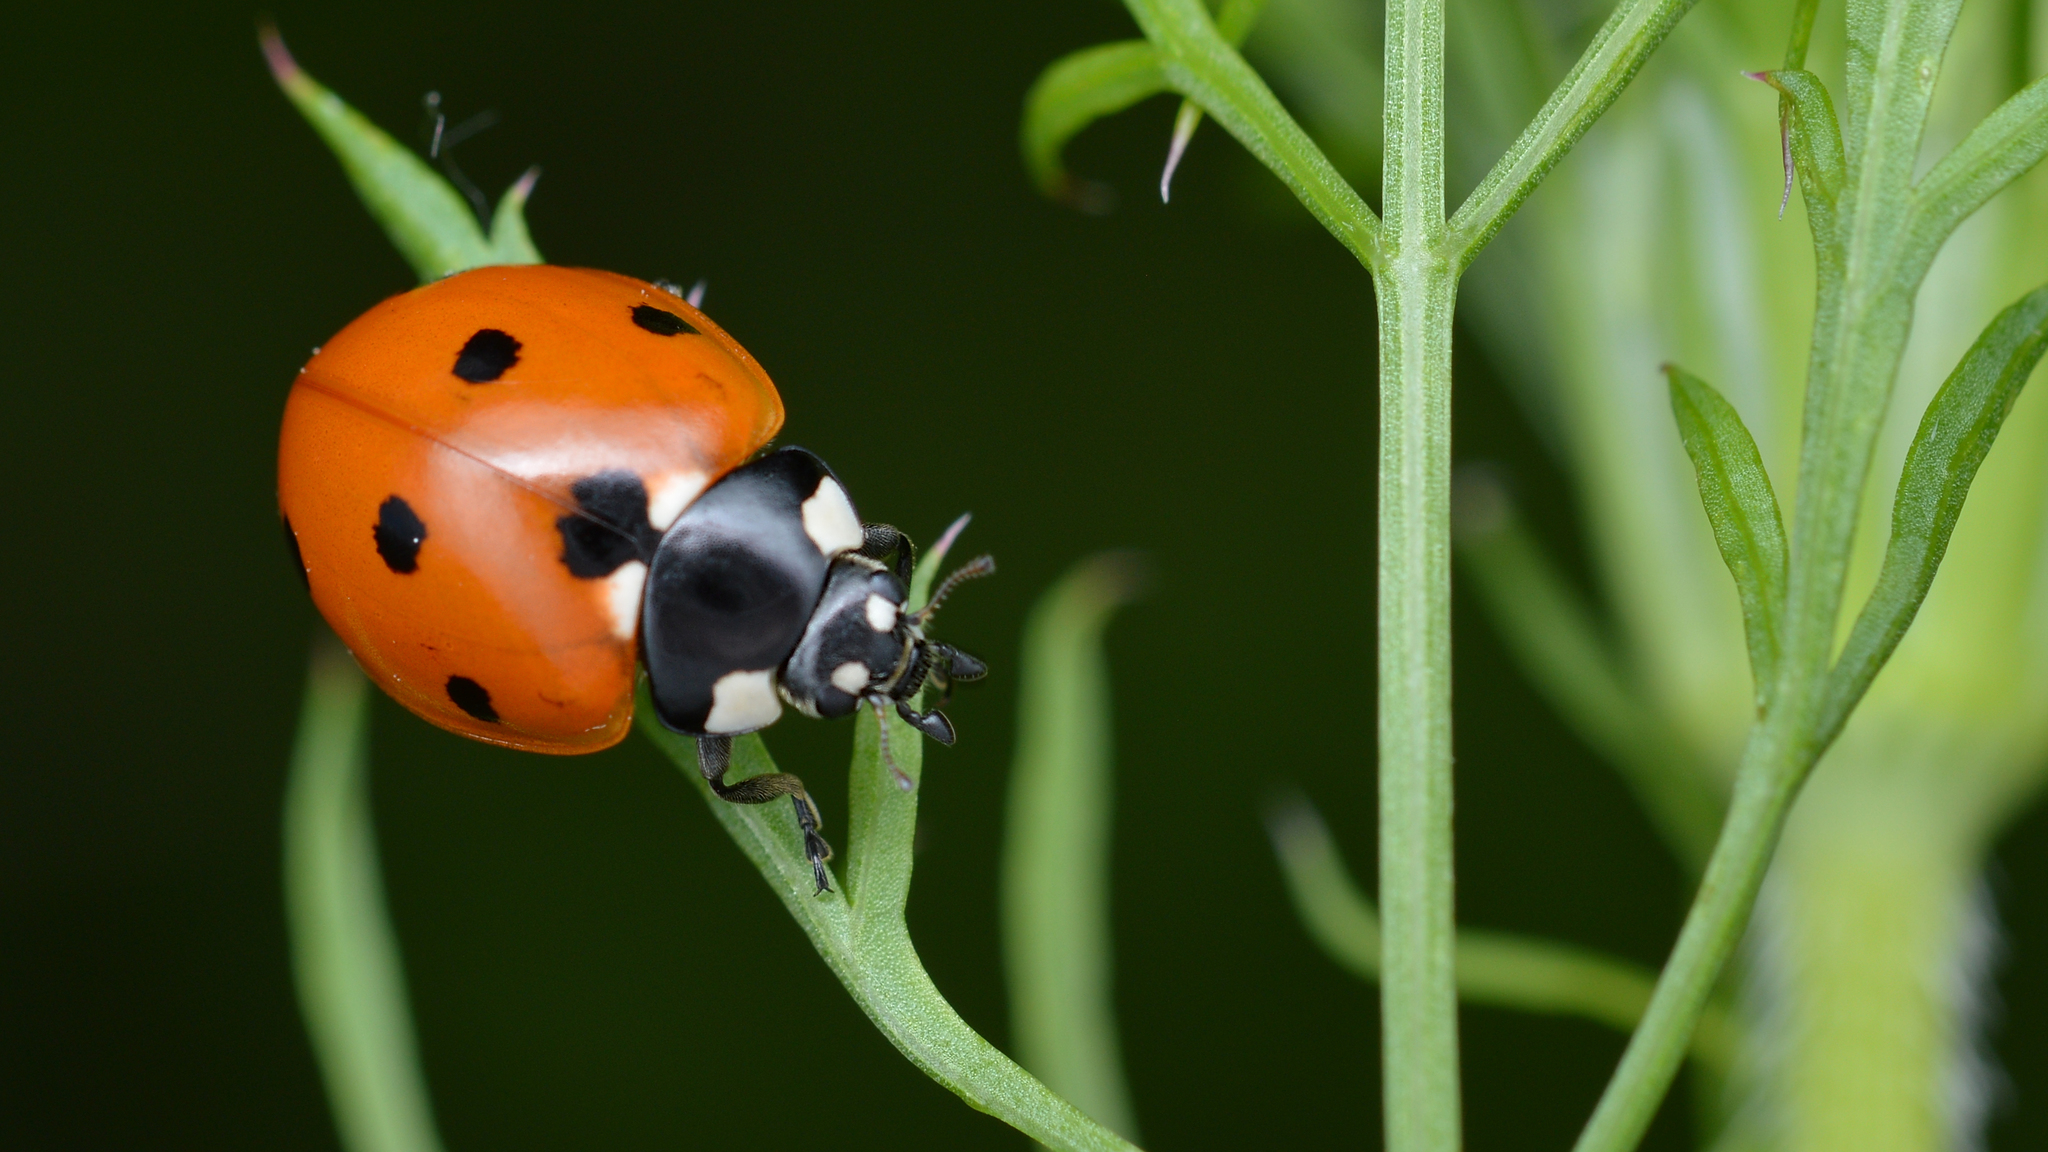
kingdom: Animalia
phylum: Arthropoda
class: Insecta
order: Coleoptera
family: Coccinellidae
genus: Coccinella
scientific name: Coccinella septempunctata
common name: Sevenspotted lady beetle
